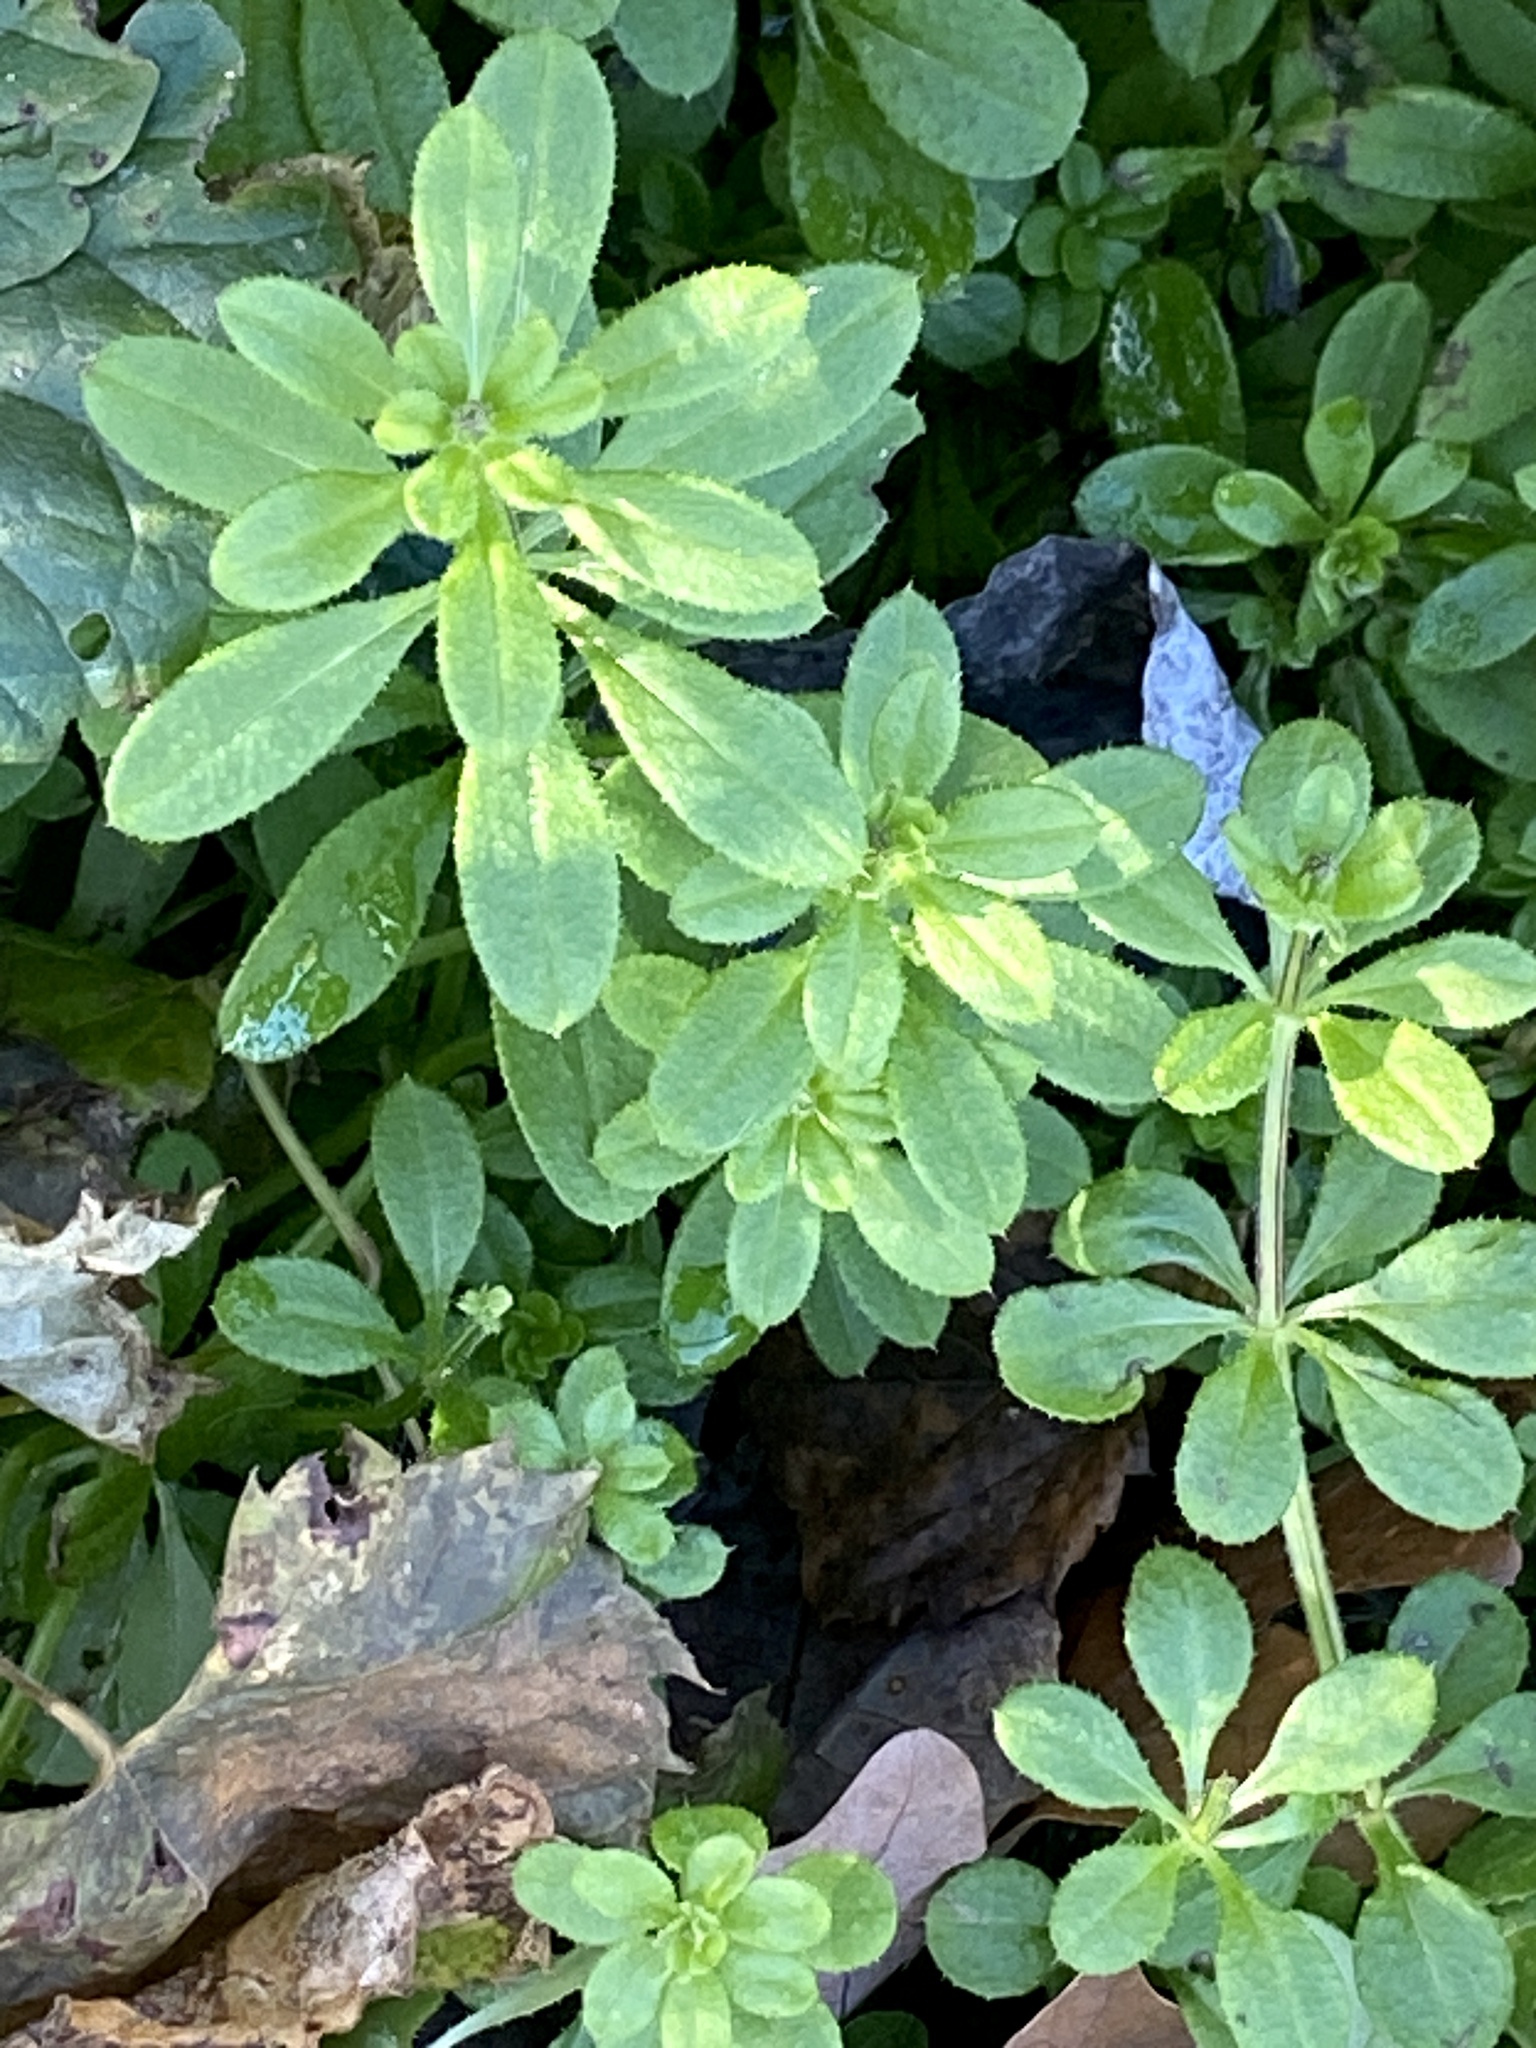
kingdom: Plantae
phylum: Tracheophyta
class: Magnoliopsida
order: Gentianales
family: Rubiaceae
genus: Galium
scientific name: Galium aparine
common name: Cleavers
